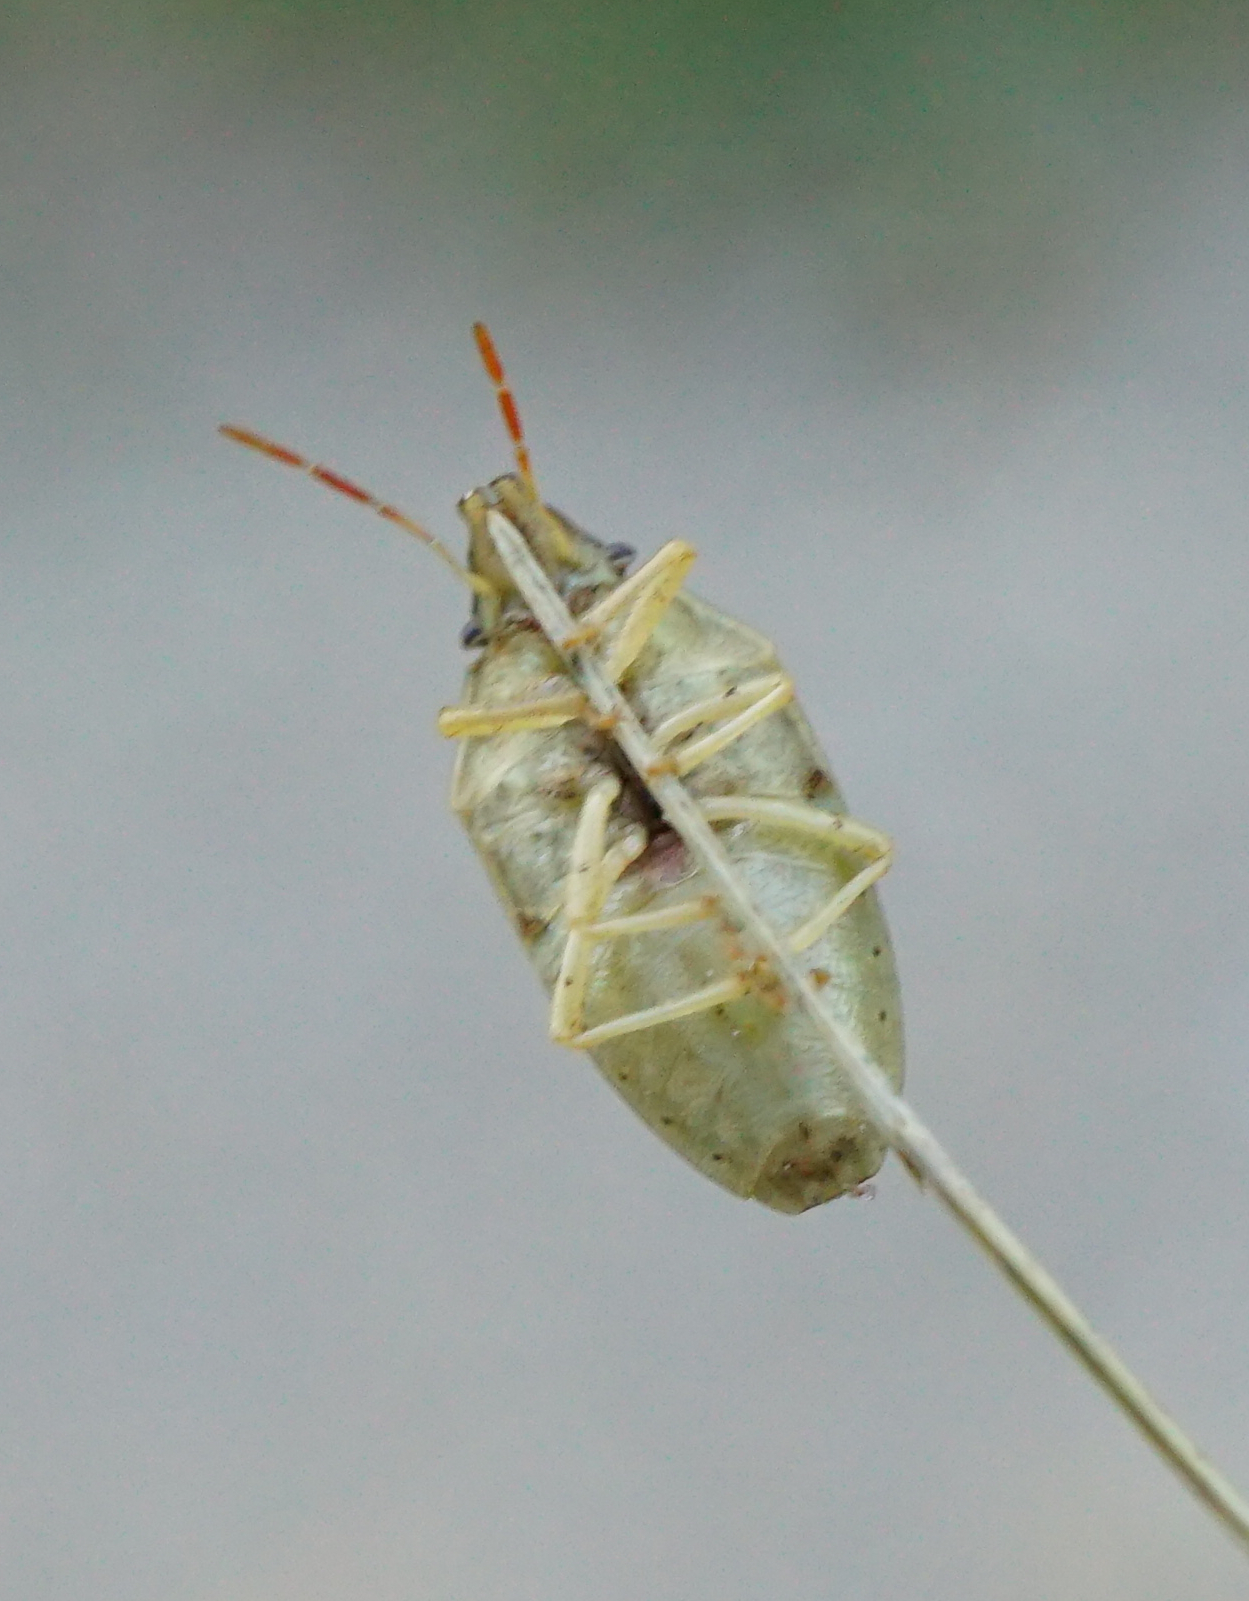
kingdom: Animalia
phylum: Arthropoda
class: Insecta
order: Hemiptera
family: Pentatomidae
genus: Aelia
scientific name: Aelia acuminata
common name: Bishop's mitre
